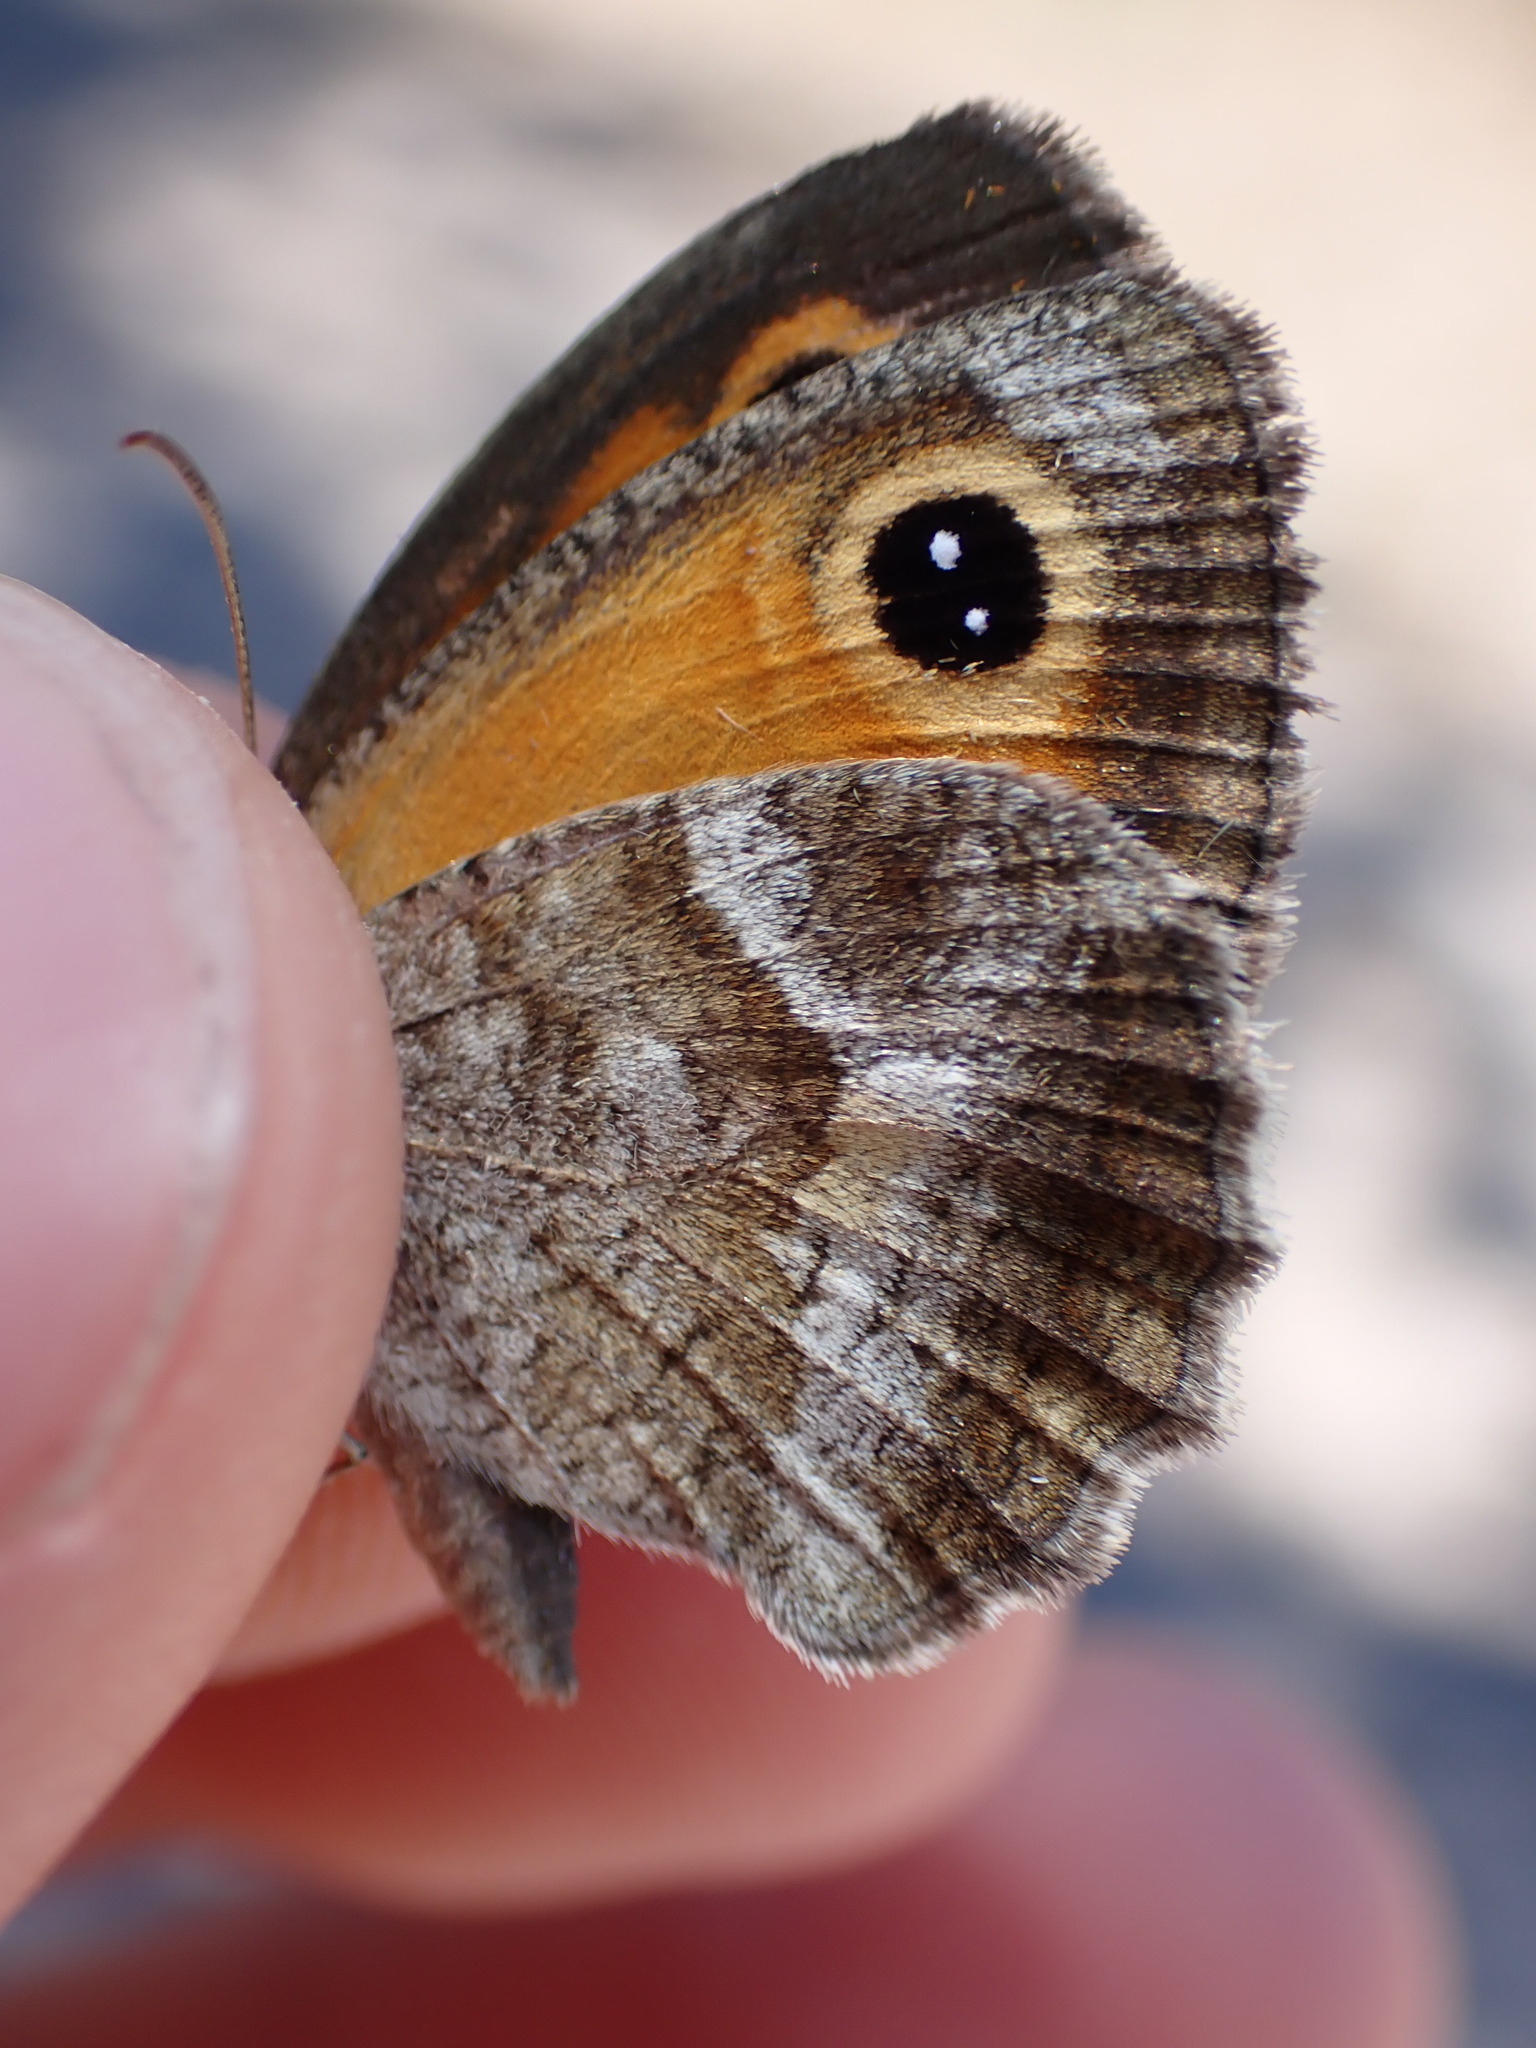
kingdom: Animalia
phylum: Arthropoda
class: Insecta
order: Lepidoptera
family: Nymphalidae
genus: Pyronia
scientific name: Pyronia cecilia
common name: Southern gatekeeper
